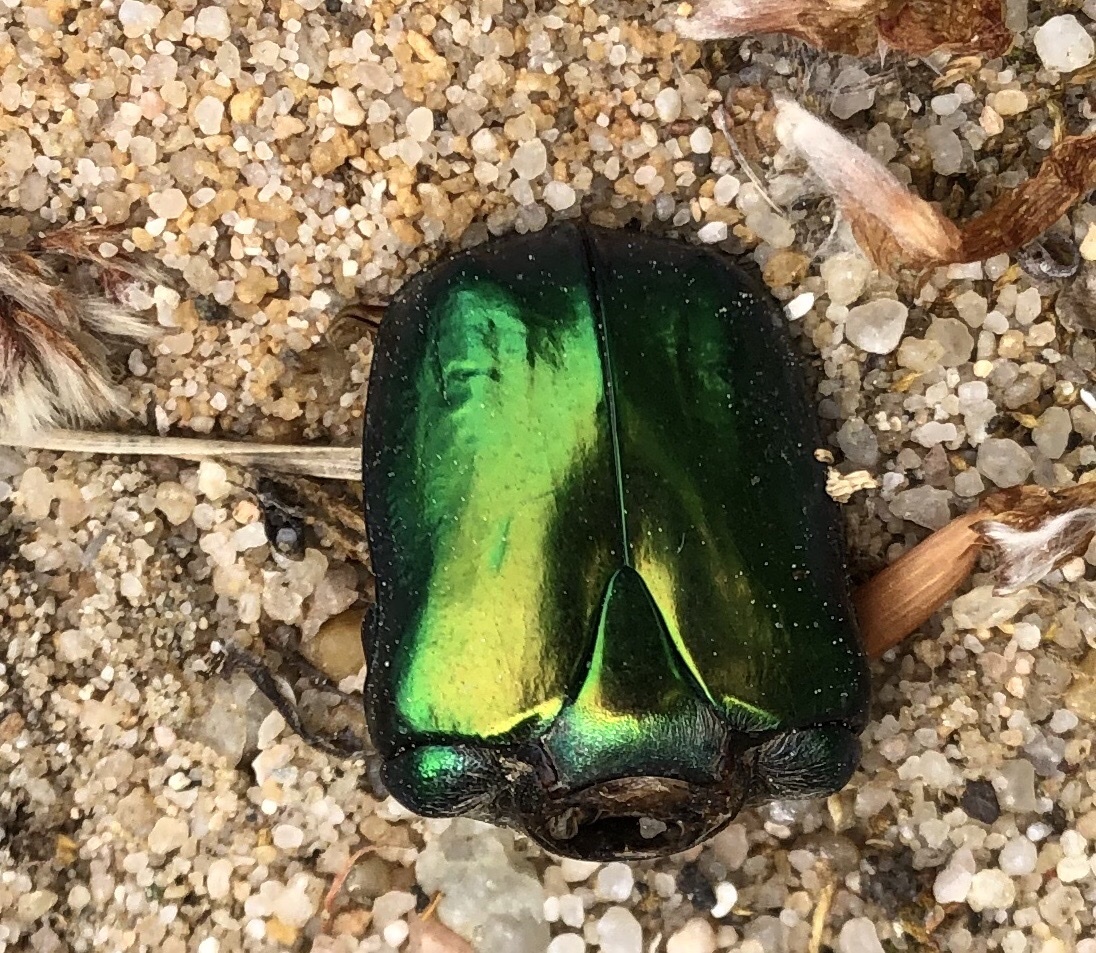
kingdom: Animalia
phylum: Arthropoda
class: Insecta
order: Coleoptera
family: Scarabaeidae
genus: Protaetia
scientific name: Protaetia speciosissima
